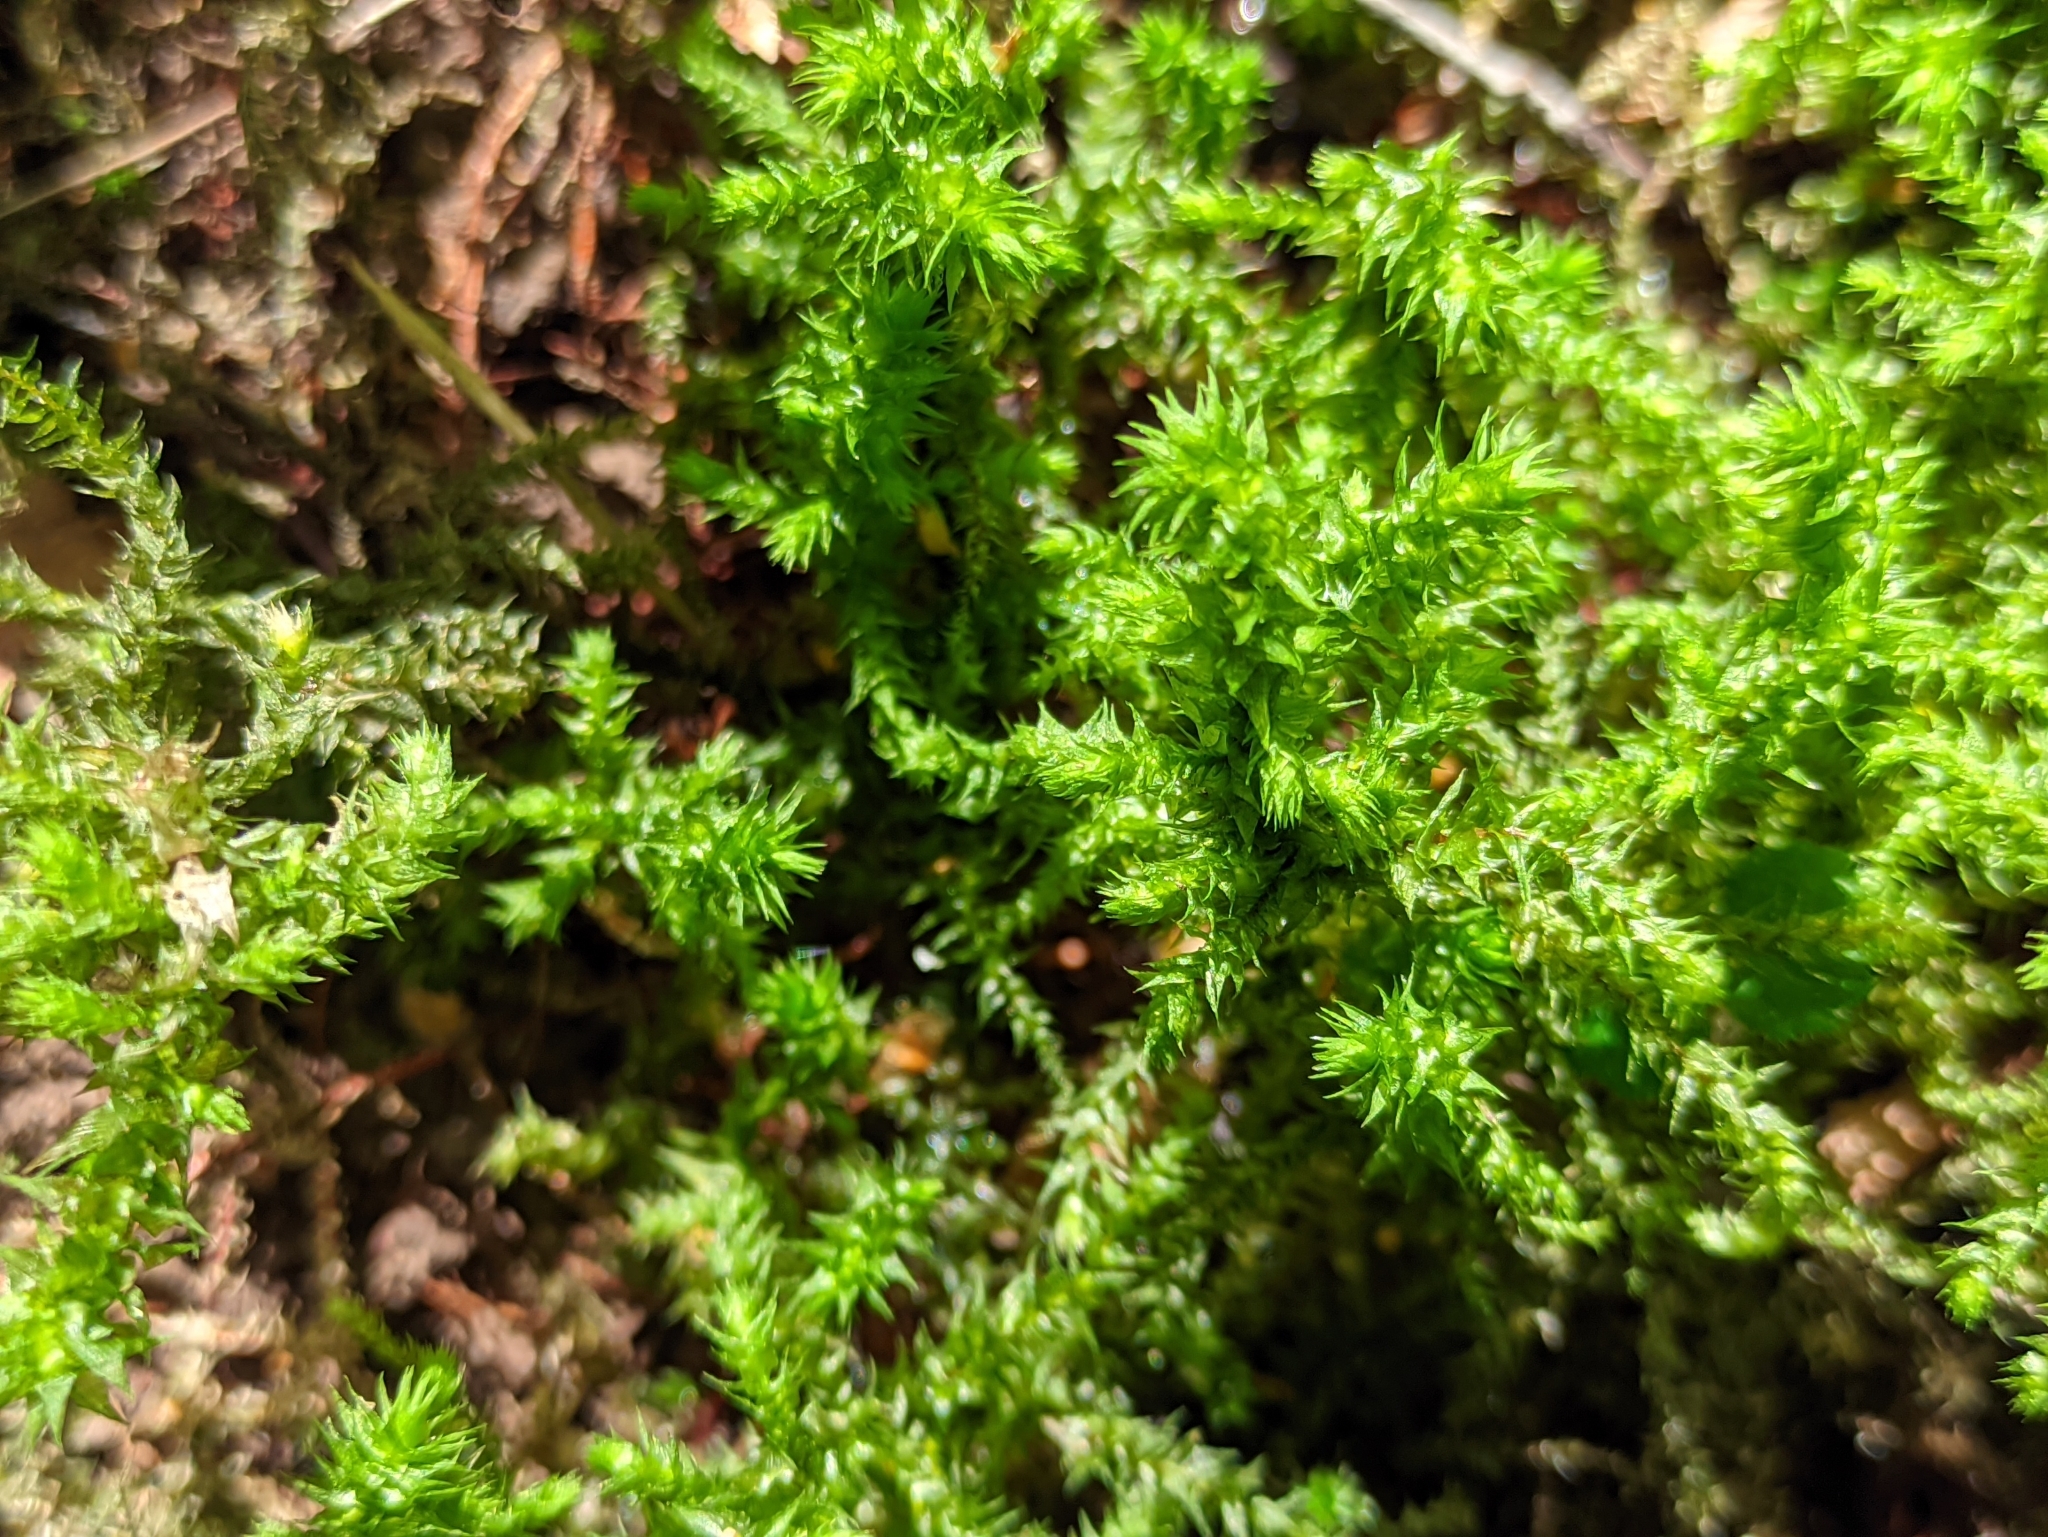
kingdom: Plantae
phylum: Bryophyta
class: Bryopsida
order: Hypnales
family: Hylocomiaceae
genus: Hylocomiadelphus
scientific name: Hylocomiadelphus triquetrus
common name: Rough goose neck moss
